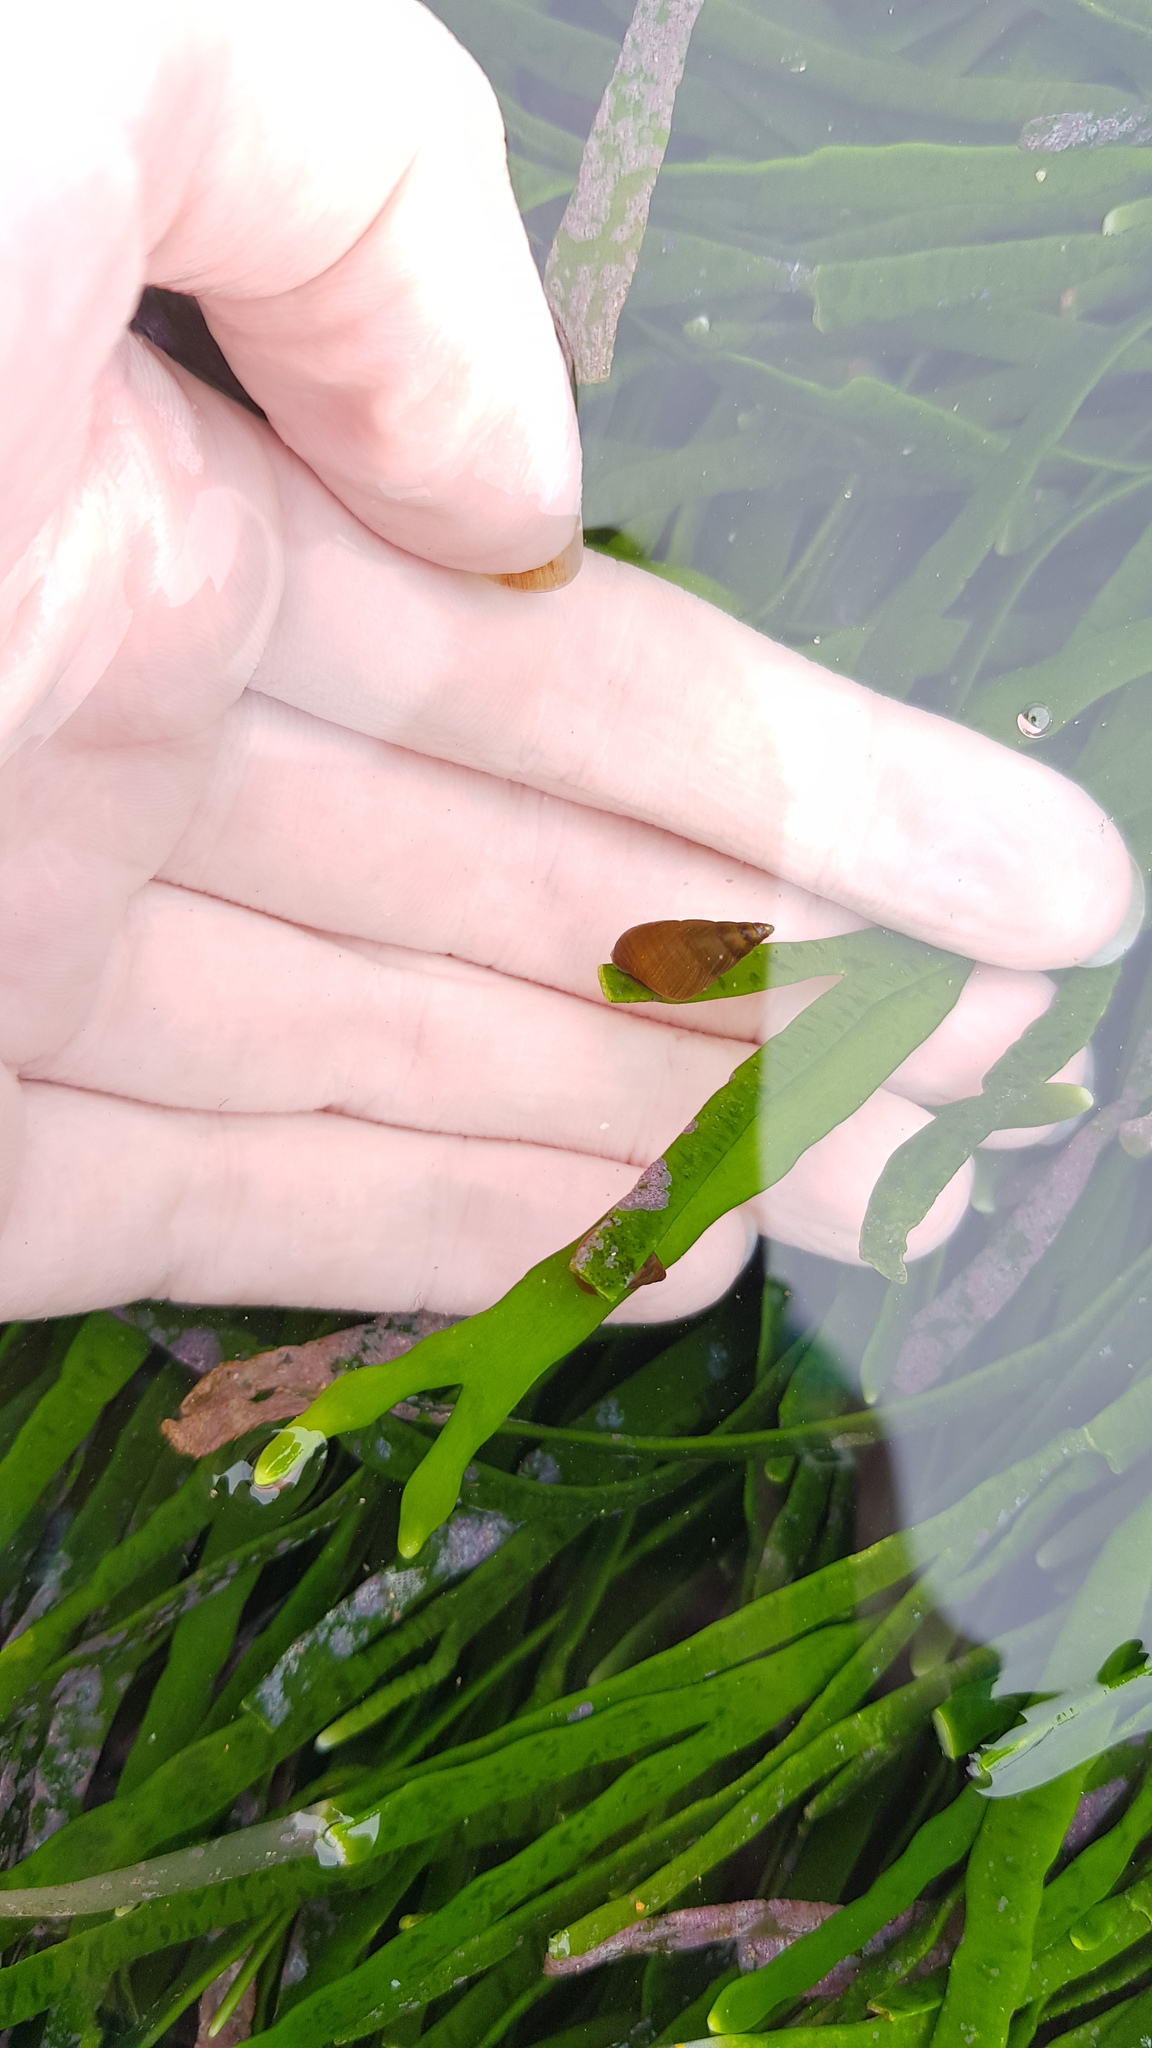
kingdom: Animalia
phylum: Mollusca
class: Gastropoda
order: Trochida
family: Trochidae
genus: Phasianotrochus
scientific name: Phasianotrochus eximius
